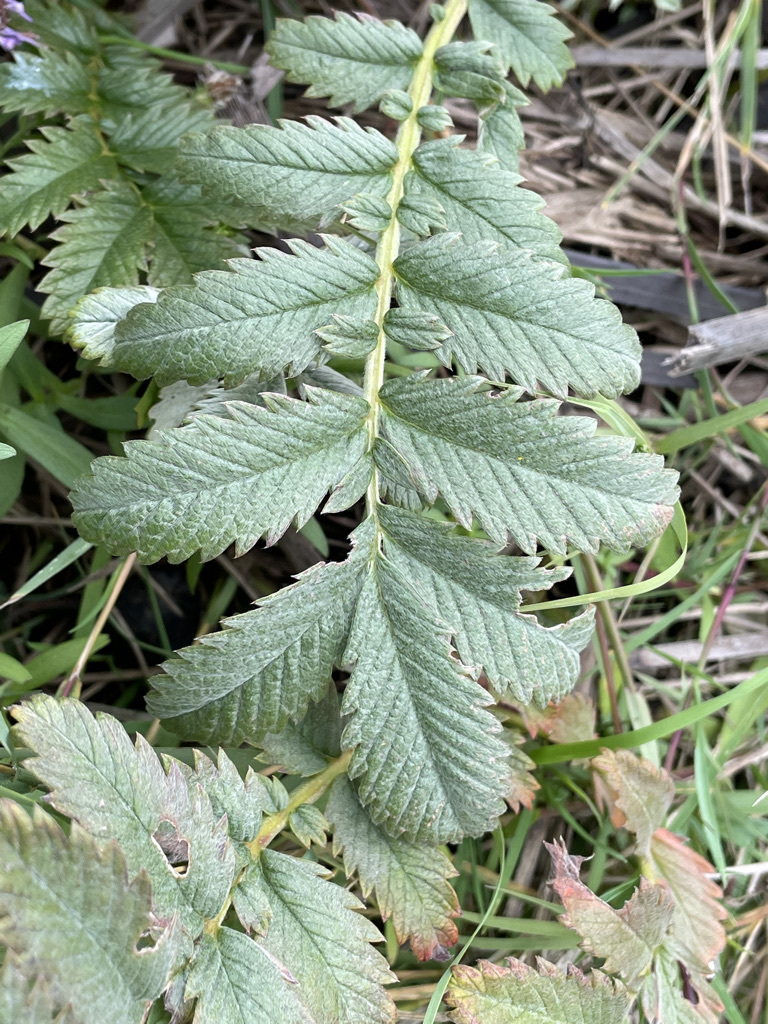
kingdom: Plantae
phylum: Tracheophyta
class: Magnoliopsida
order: Rosales
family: Rosaceae
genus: Argentina
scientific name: Argentina anserina
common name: Common silverweed
